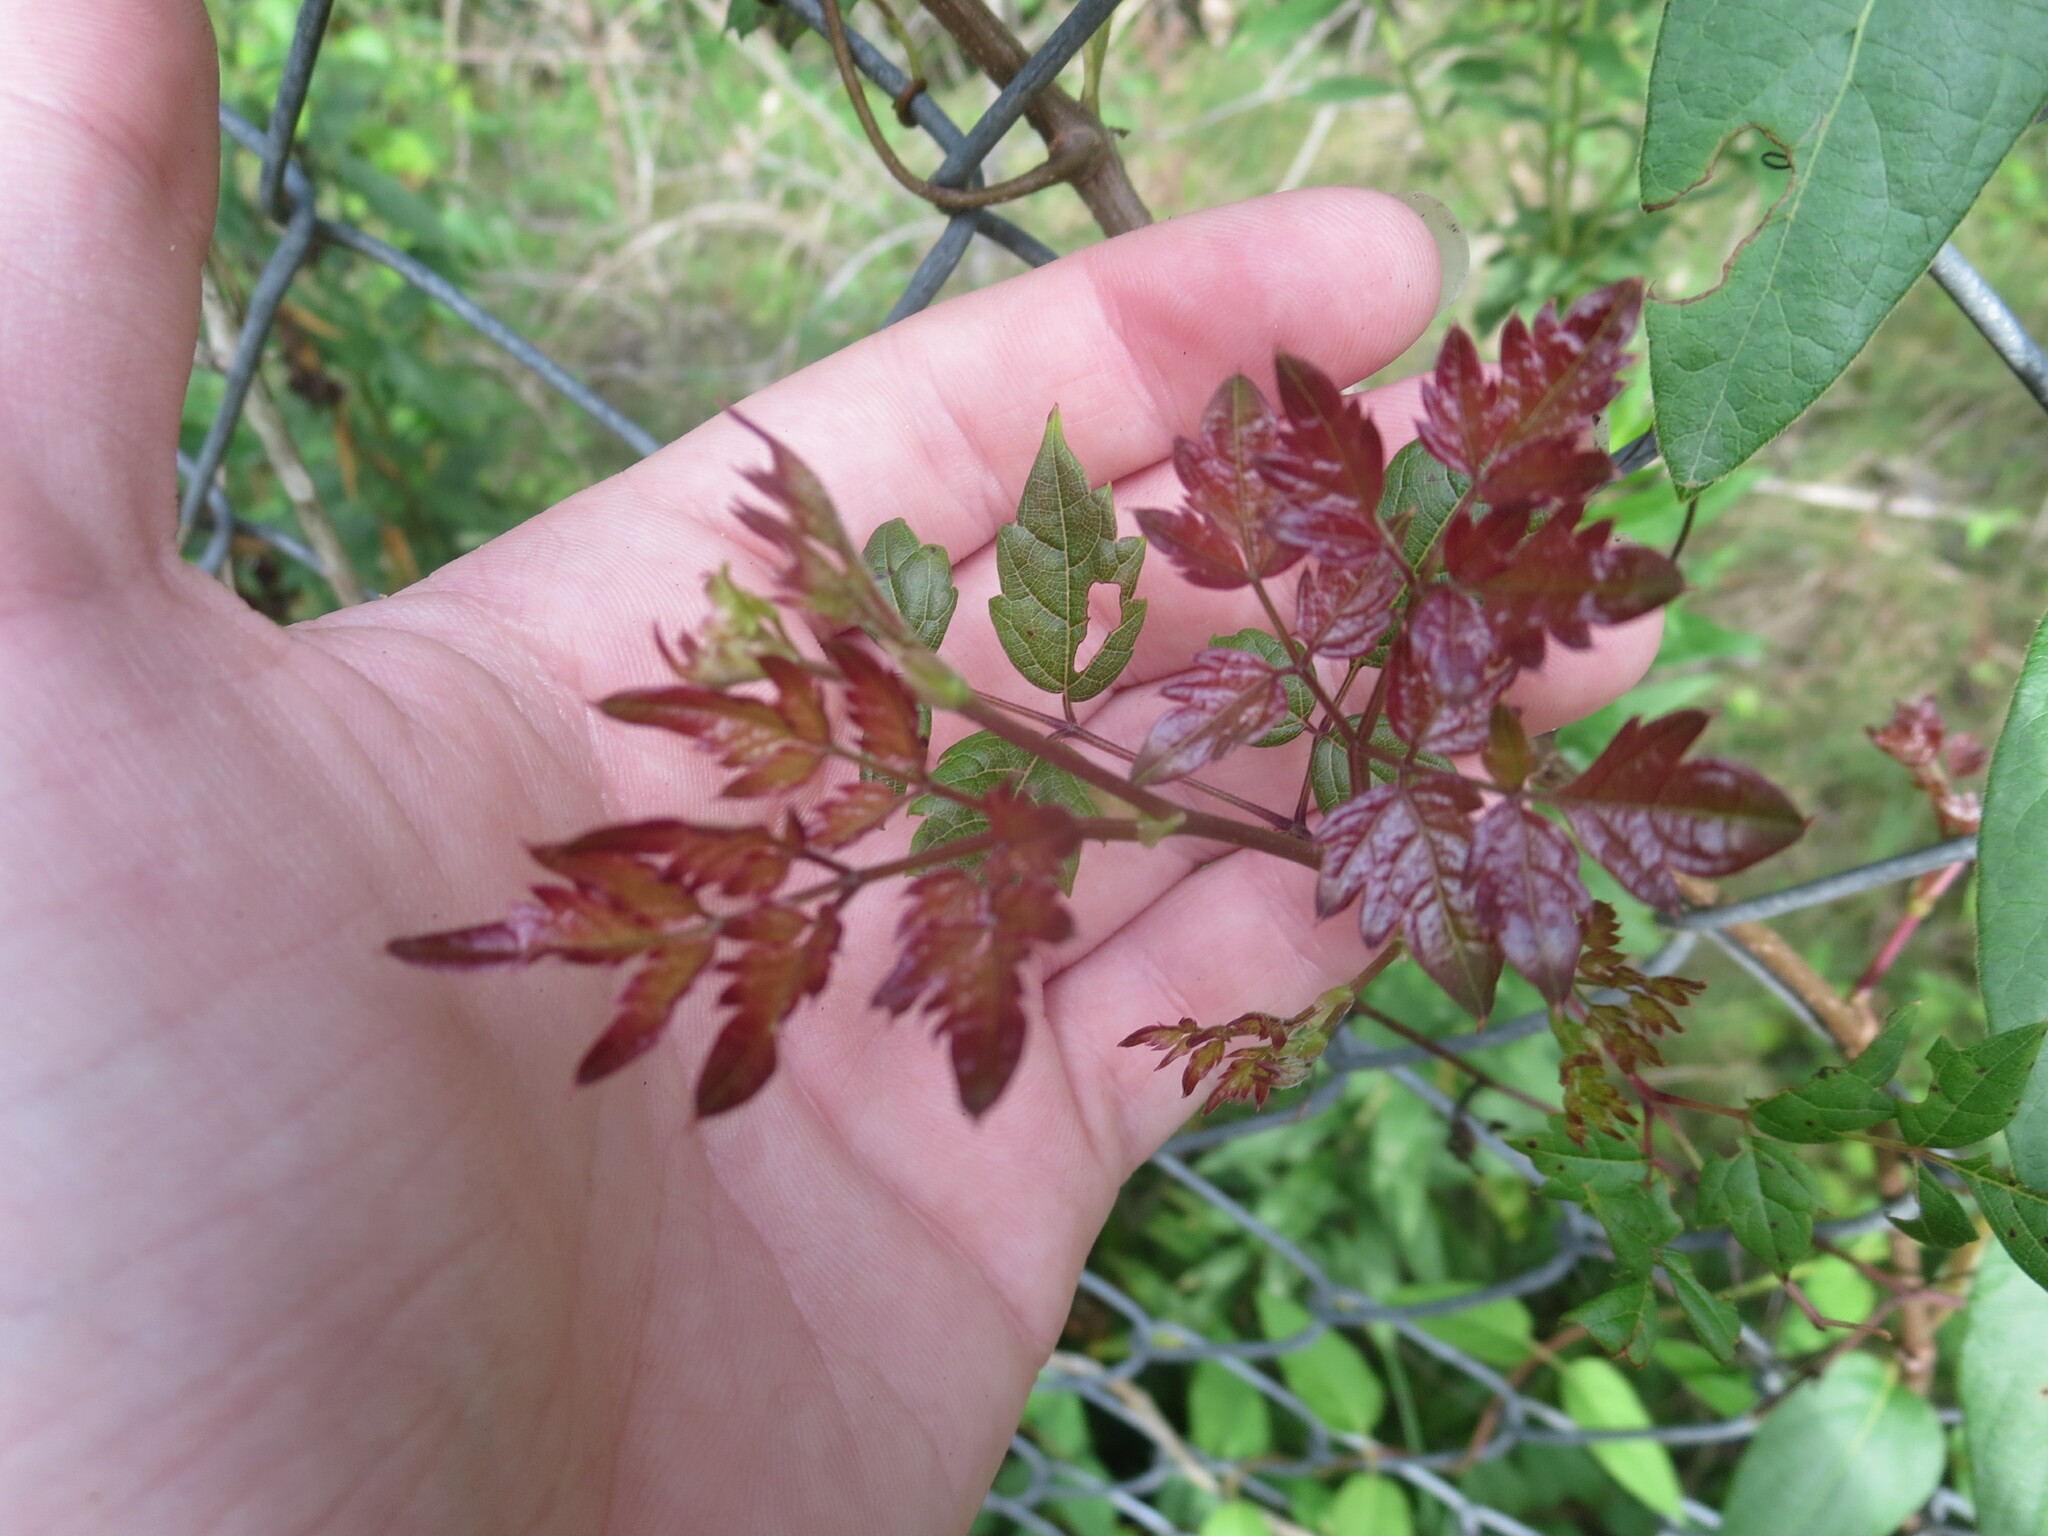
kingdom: Plantae
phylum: Tracheophyta
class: Magnoliopsida
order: Vitales
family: Vitaceae
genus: Nekemias
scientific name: Nekemias arborea
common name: Peppervine
